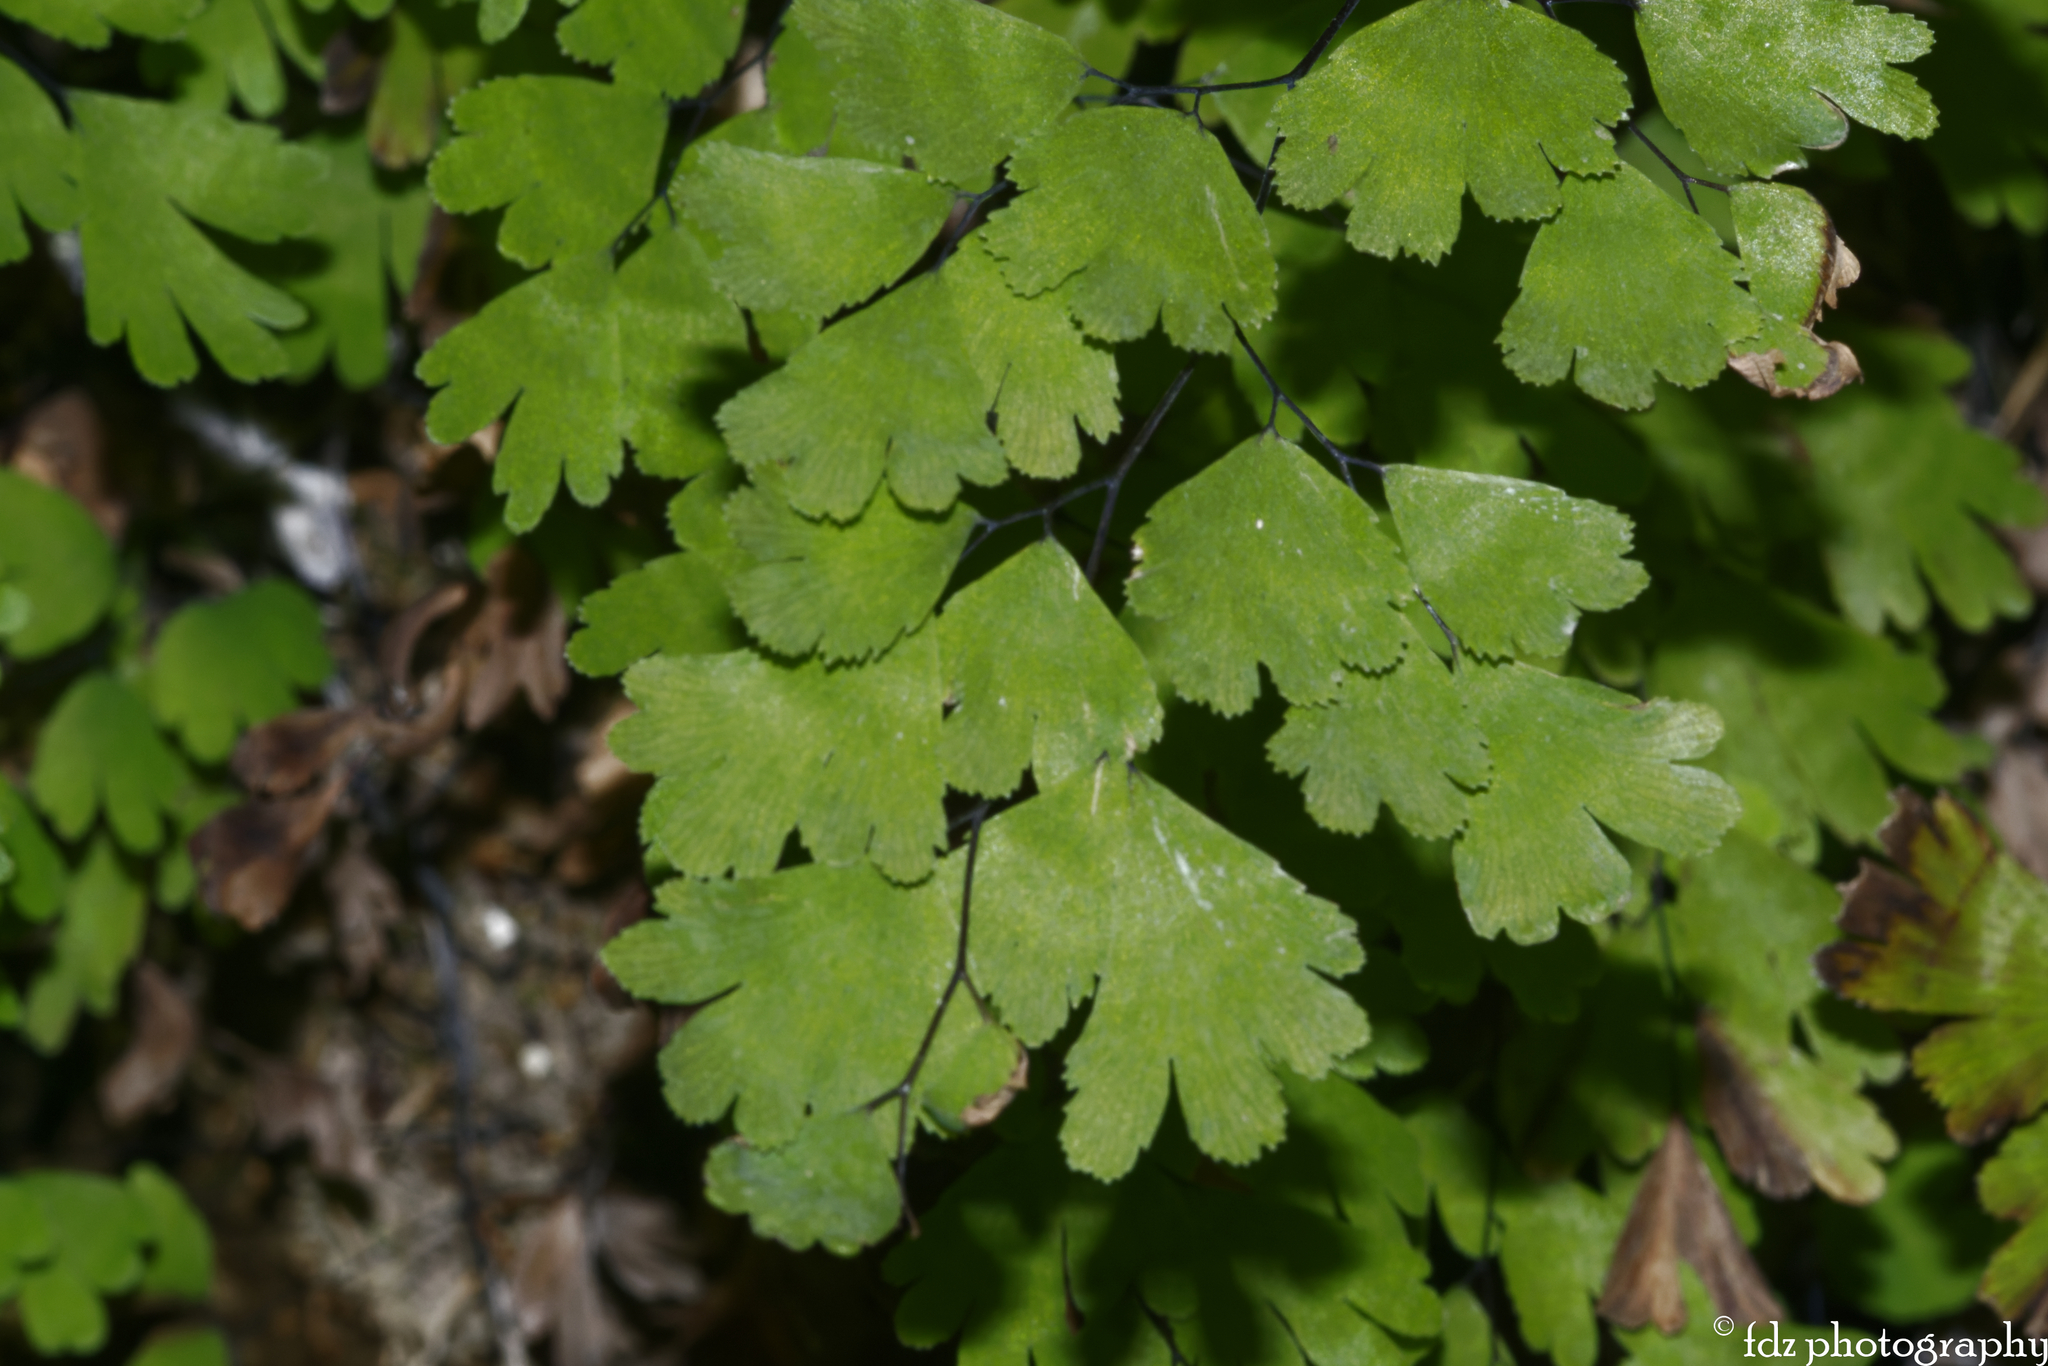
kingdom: Plantae
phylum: Tracheophyta
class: Polypodiopsida
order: Polypodiales
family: Pteridaceae
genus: Adiantum
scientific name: Adiantum capillus-veneris
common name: Maidenhair fern
